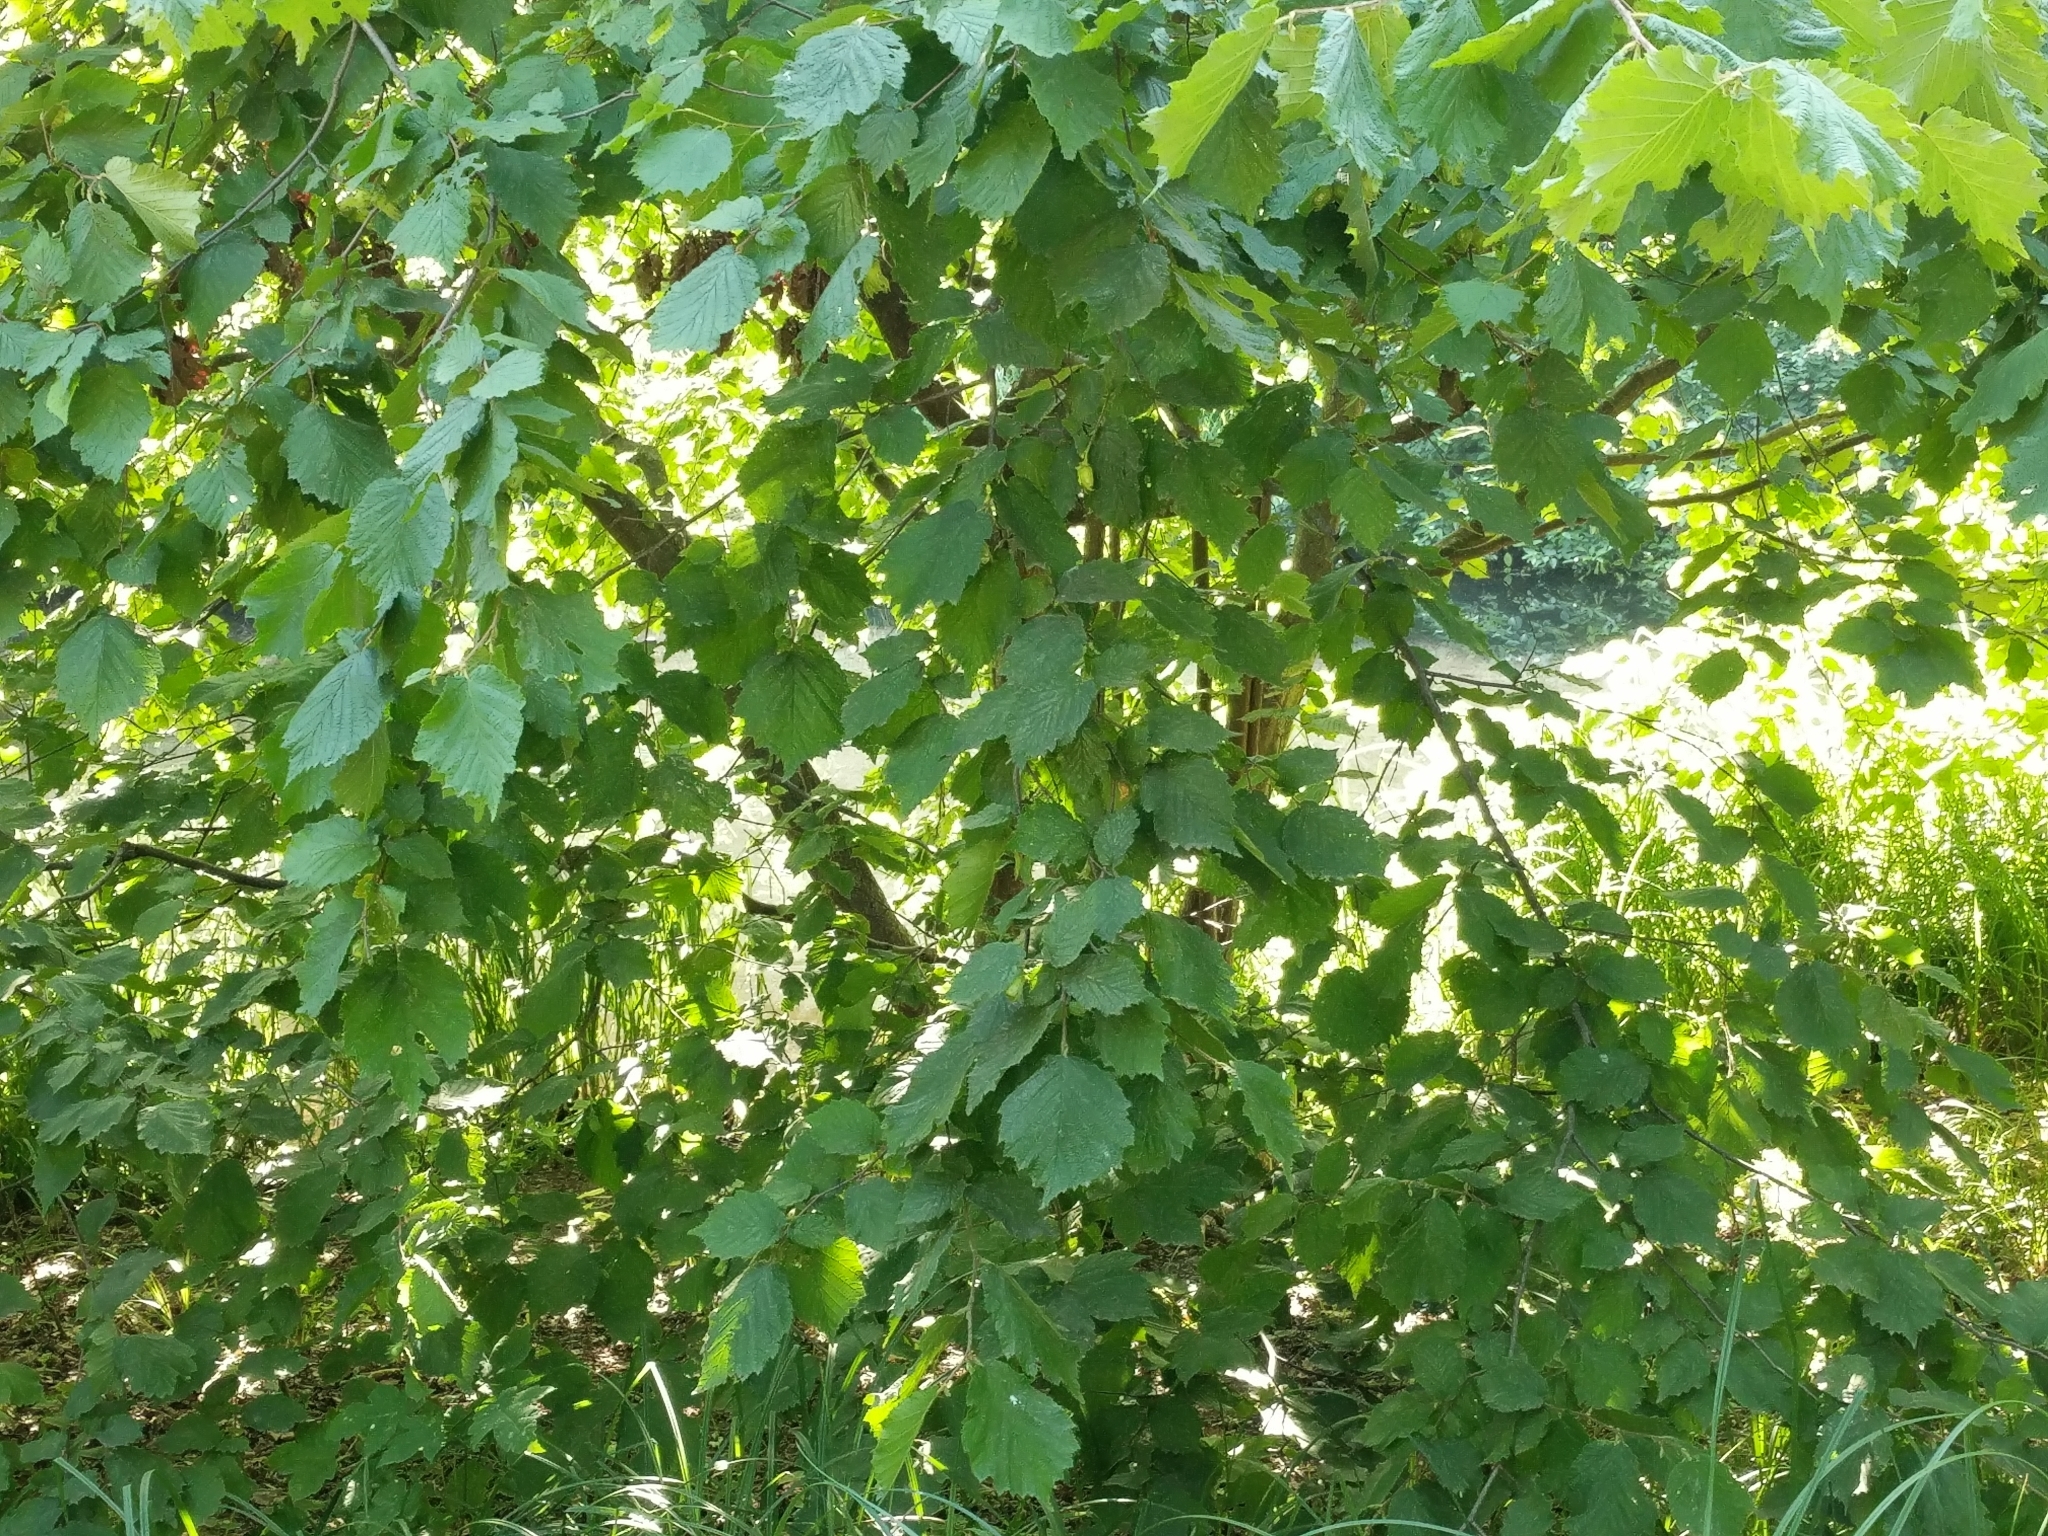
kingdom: Plantae
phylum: Tracheophyta
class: Magnoliopsida
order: Fagales
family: Betulaceae
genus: Corylus
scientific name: Corylus avellana
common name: European hazel
